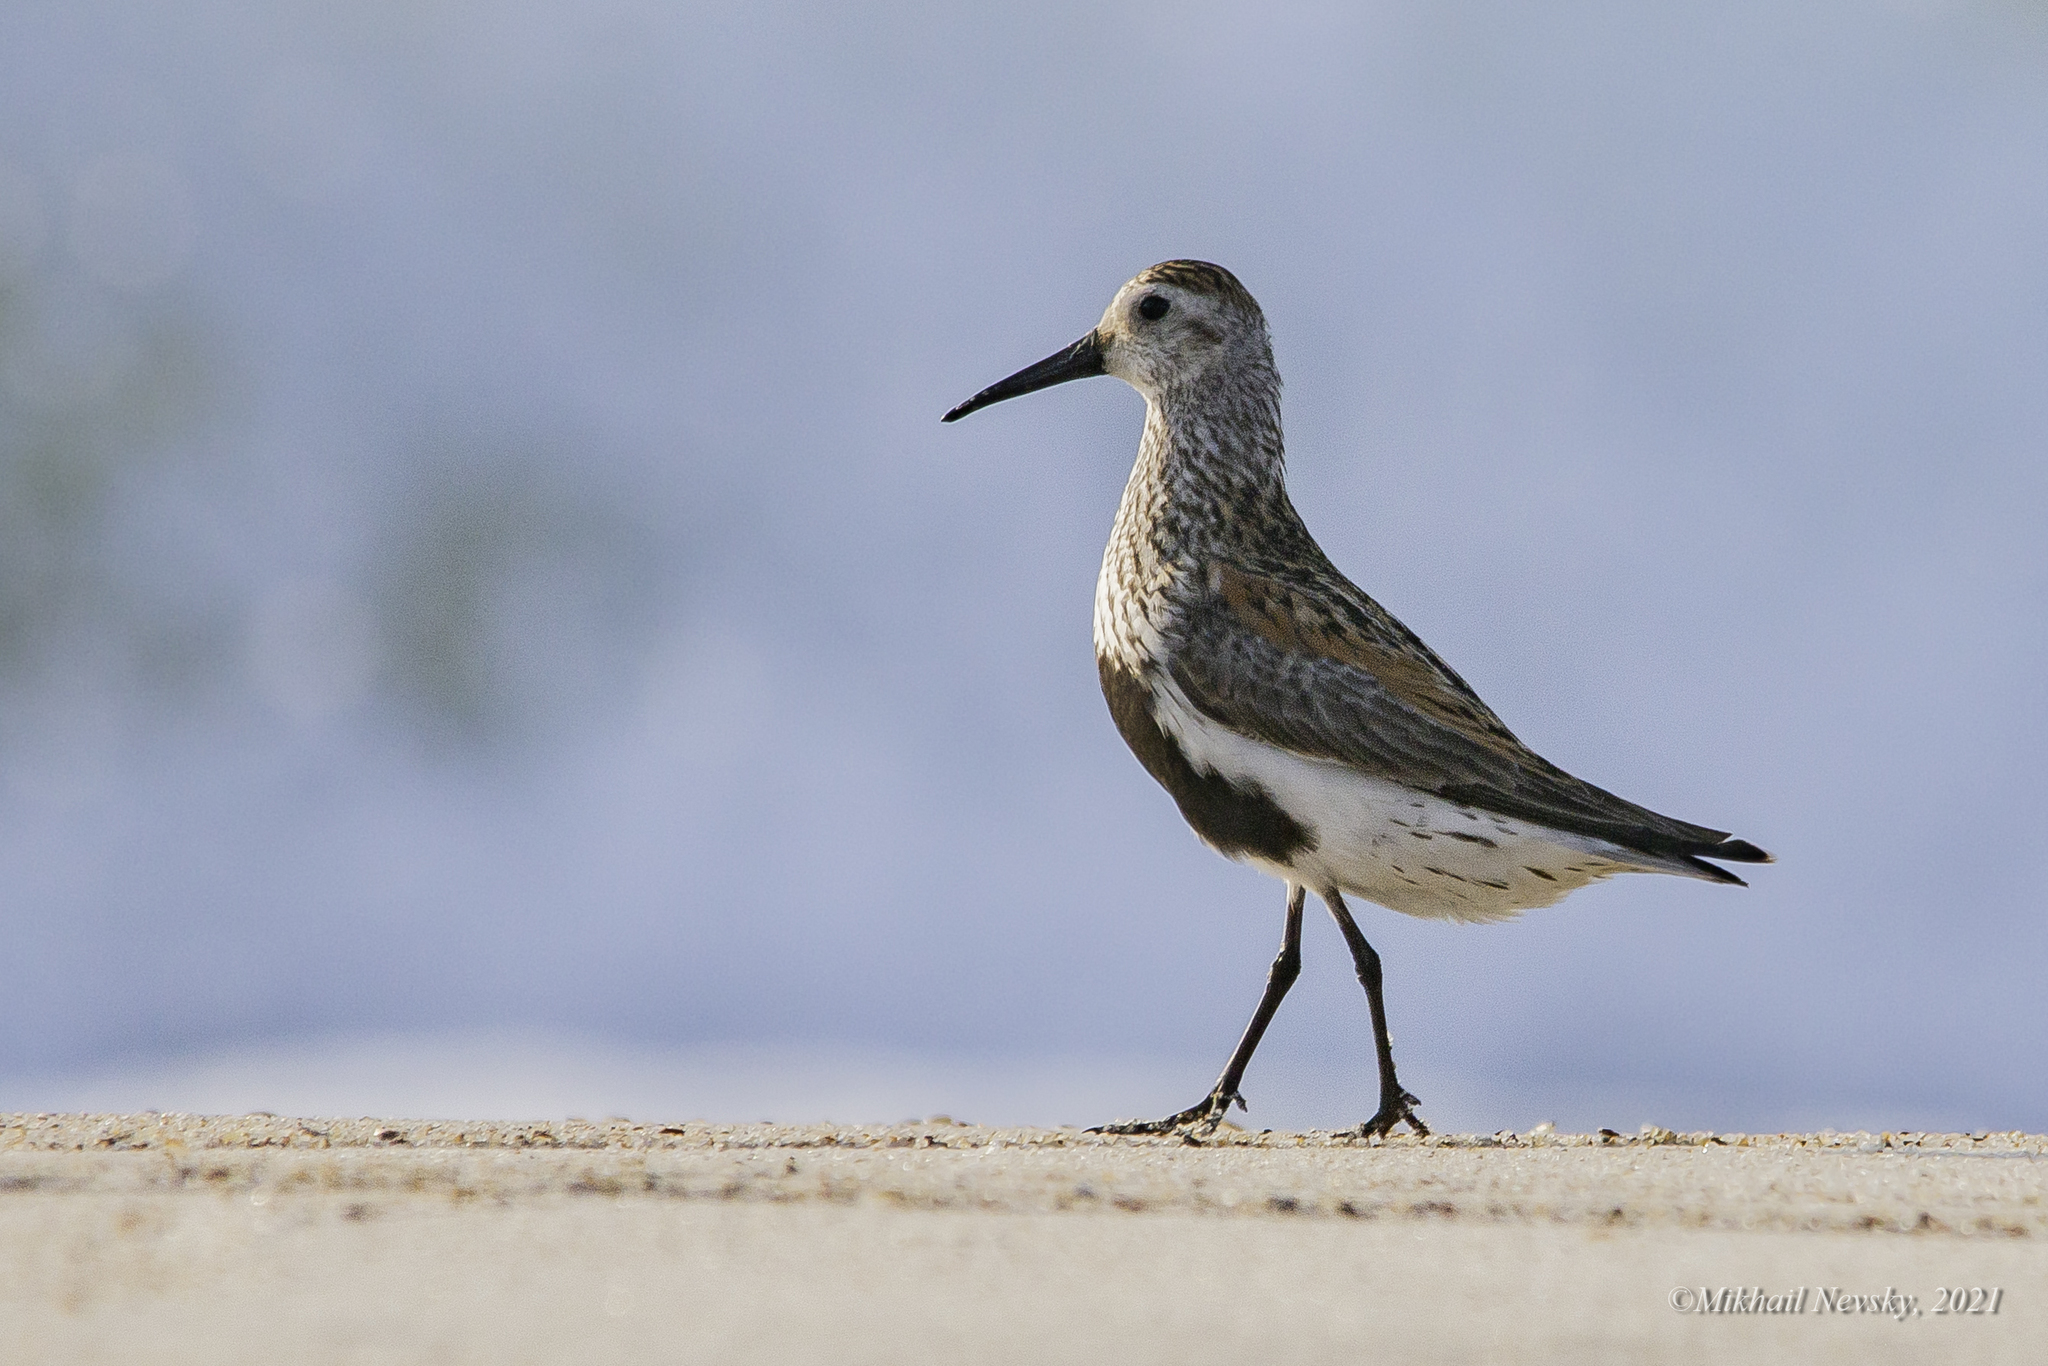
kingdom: Animalia
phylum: Chordata
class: Aves
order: Charadriiformes
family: Scolopacidae
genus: Calidris
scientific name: Calidris alpina
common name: Dunlin
